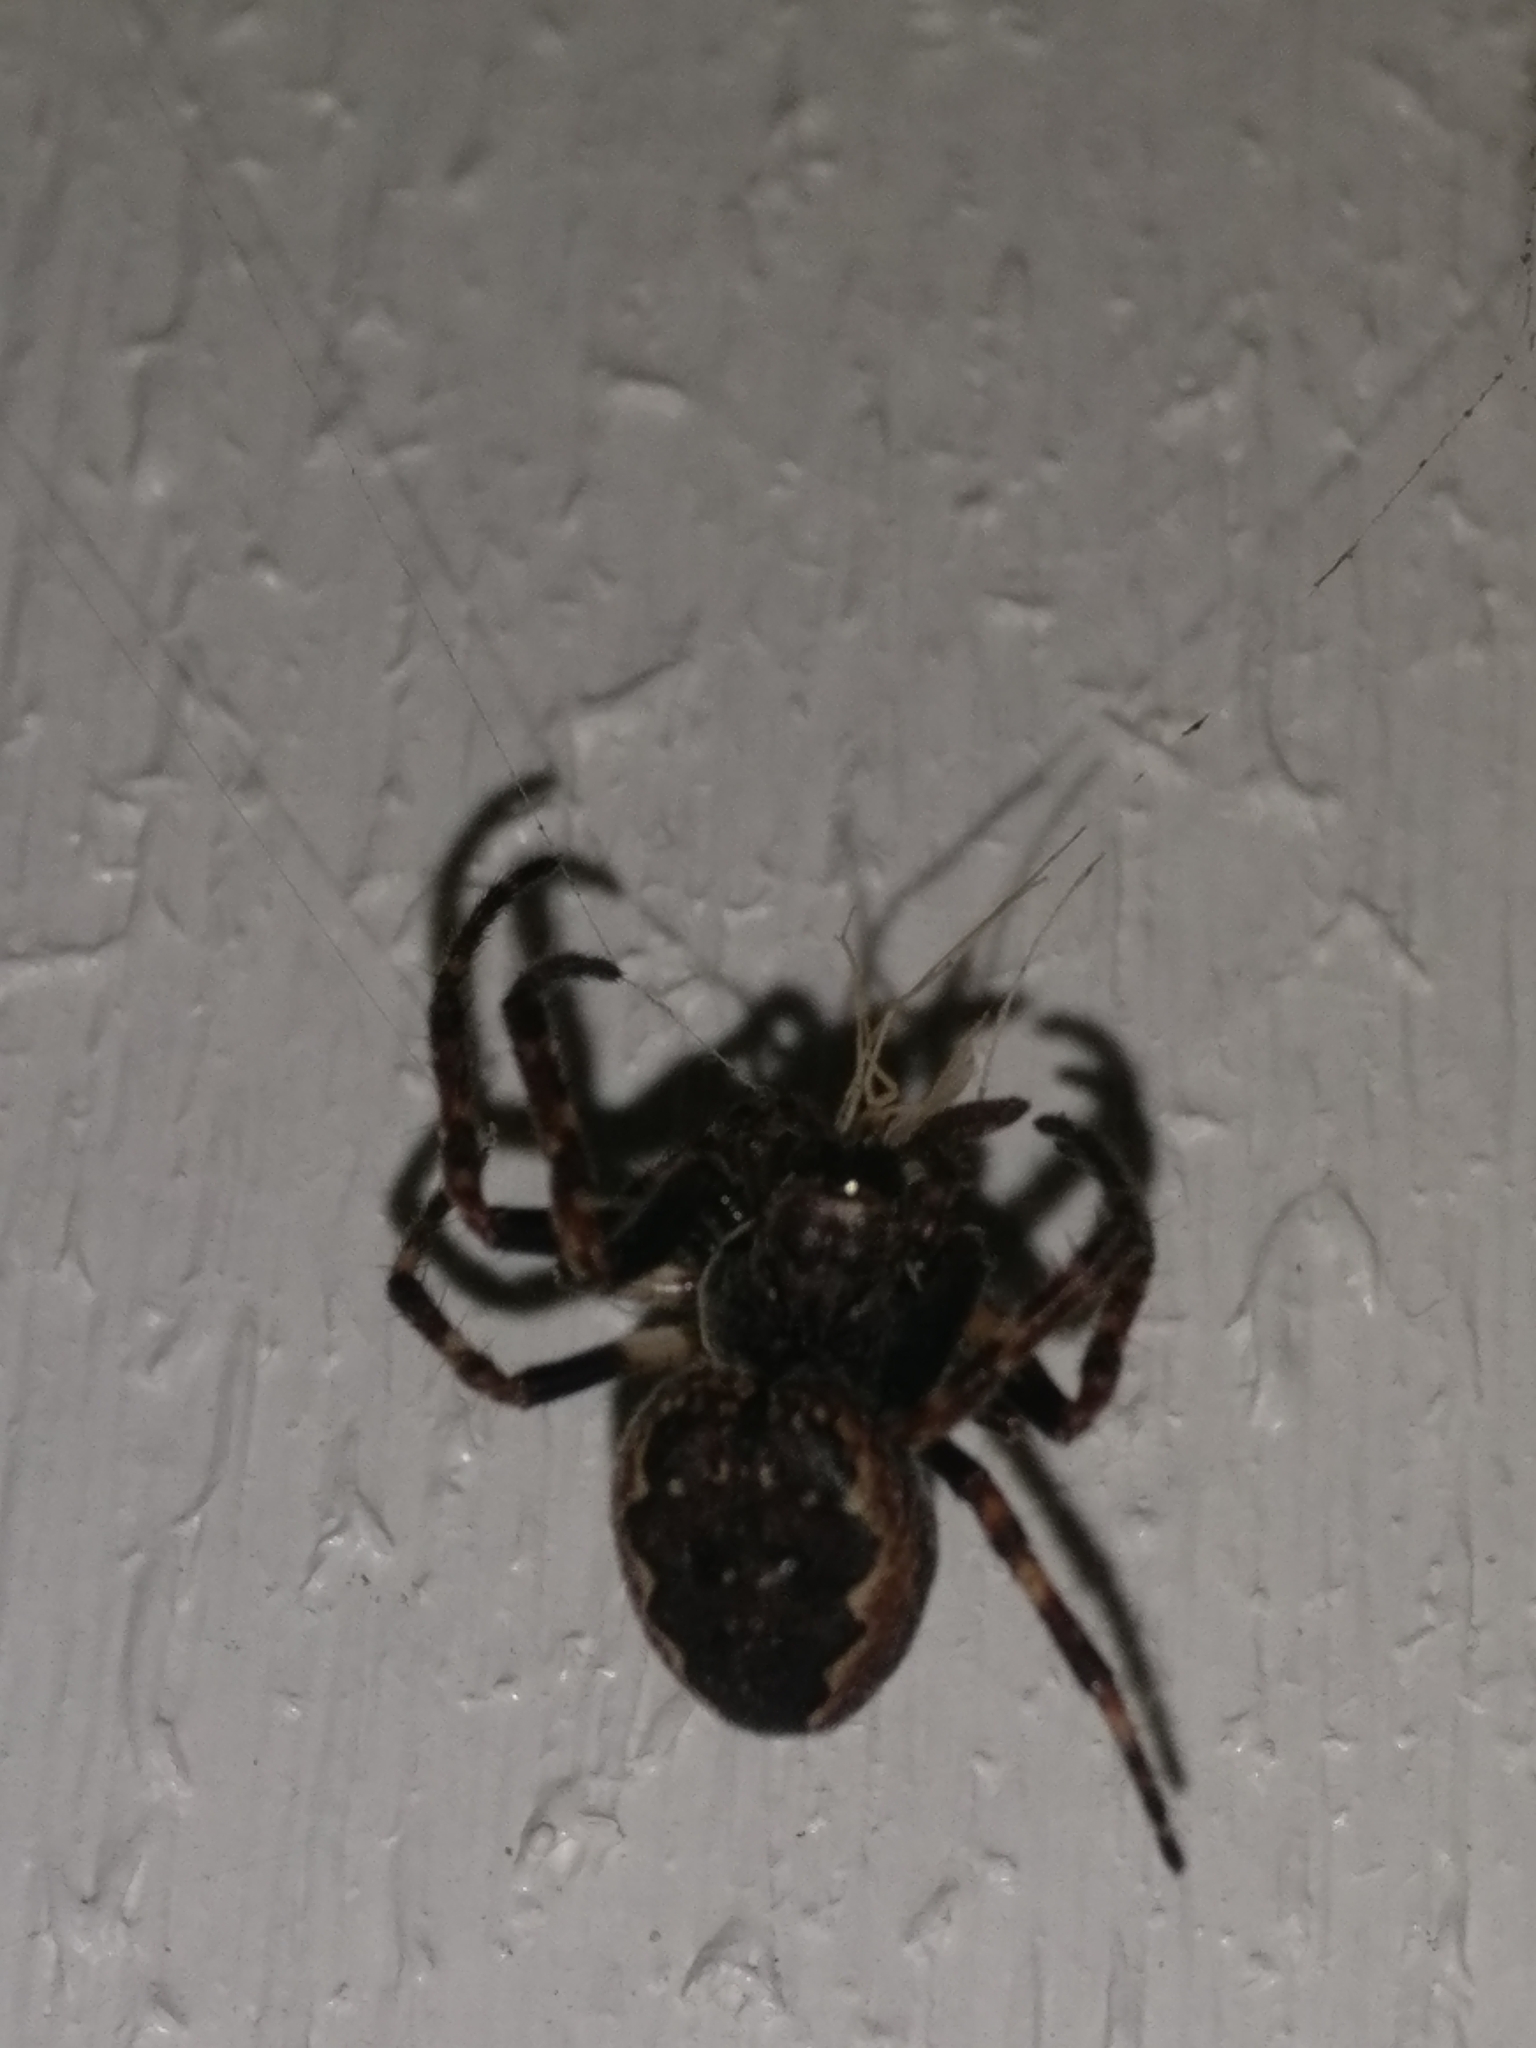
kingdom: Animalia
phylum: Arthropoda
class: Arachnida
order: Araneae
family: Araneidae
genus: Nuctenea
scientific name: Nuctenea umbratica
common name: Toad spider
